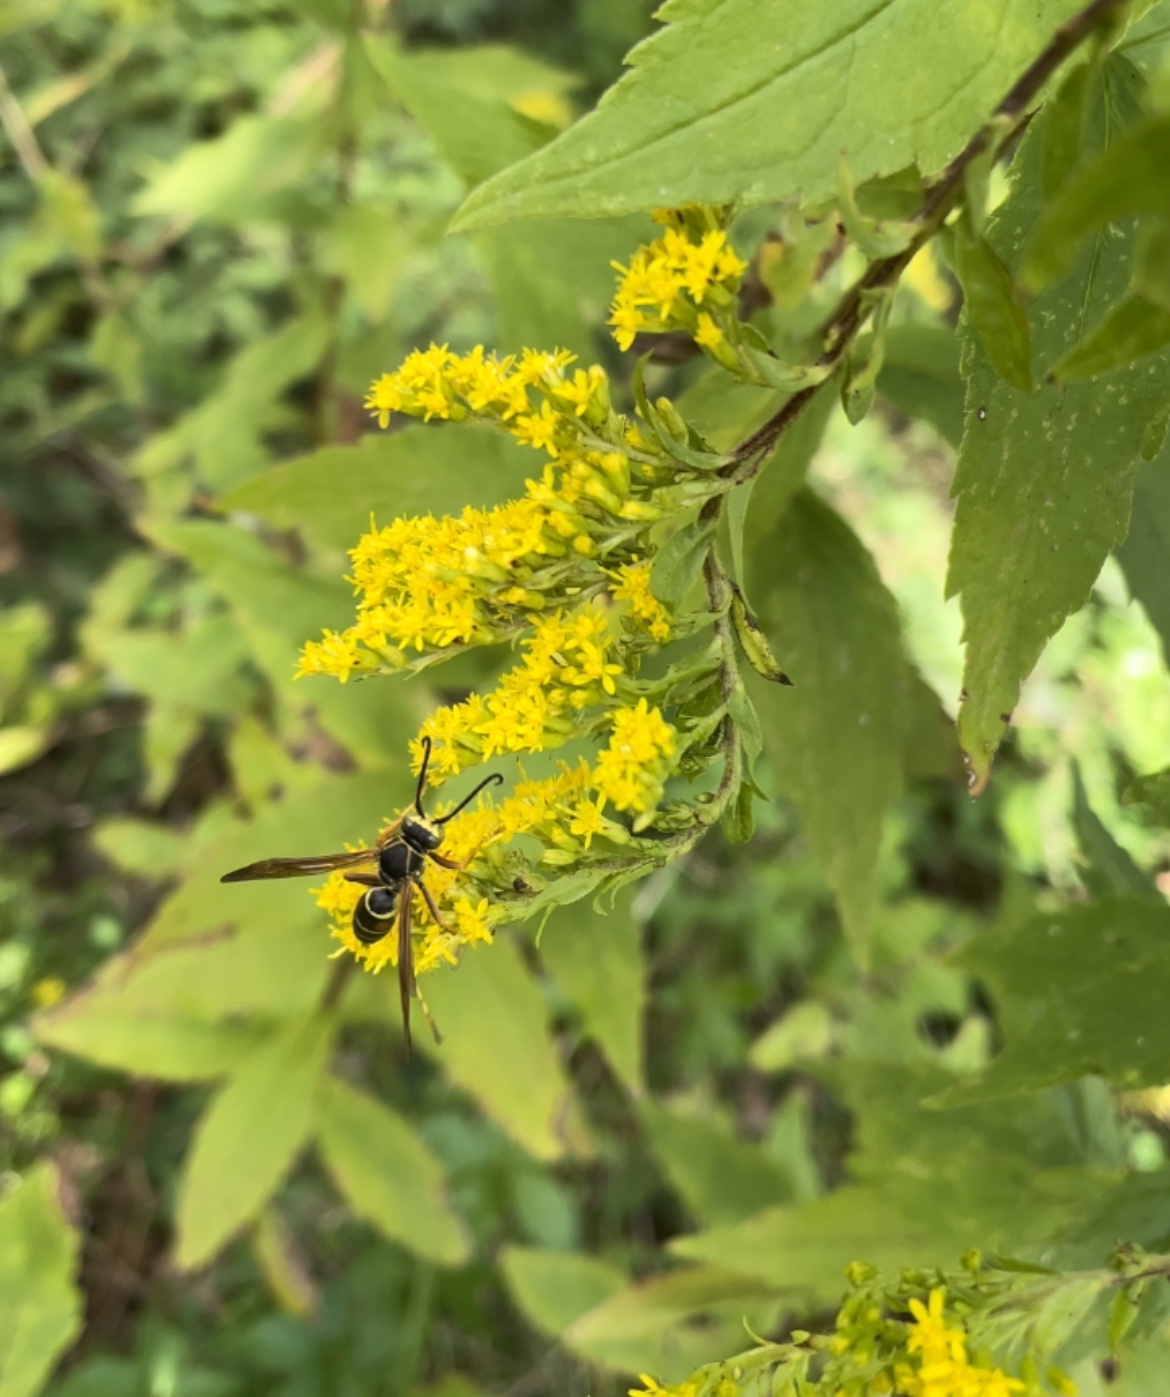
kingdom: Animalia
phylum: Arthropoda
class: Insecta
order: Hymenoptera
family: Eumenidae
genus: Polistes
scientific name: Polistes fuscatus
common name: Dark paper wasp
